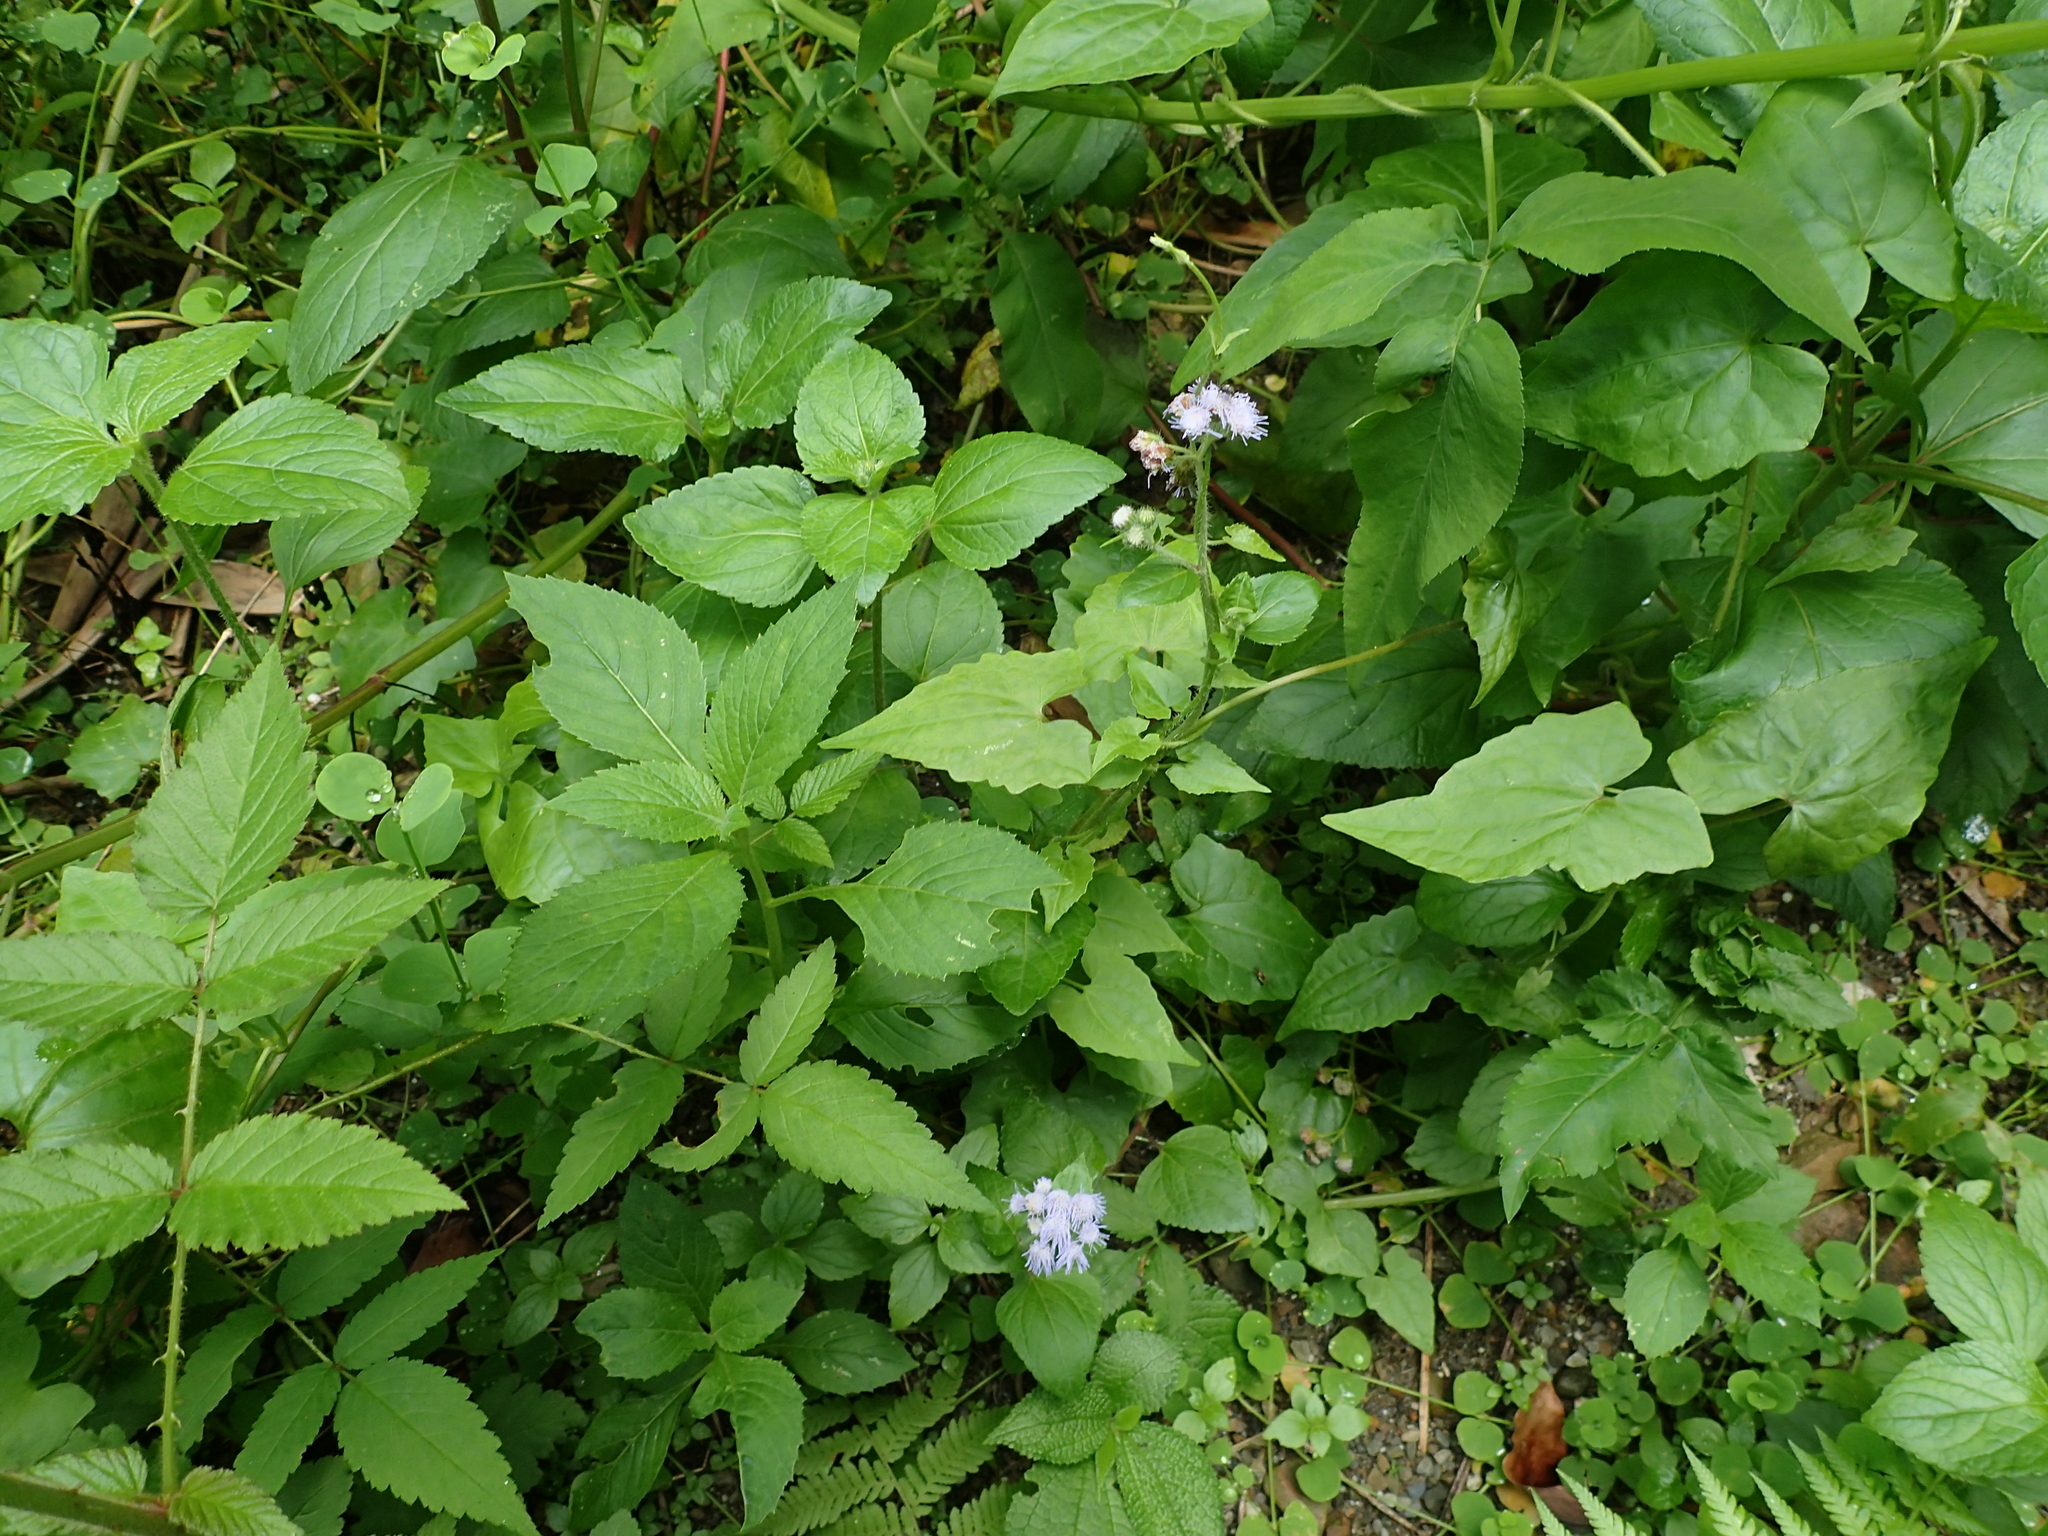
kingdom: Plantae
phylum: Tracheophyta
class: Magnoliopsida
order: Asterales
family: Asteraceae
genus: Ageratum
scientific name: Ageratum houstonianum
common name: Bluemink
